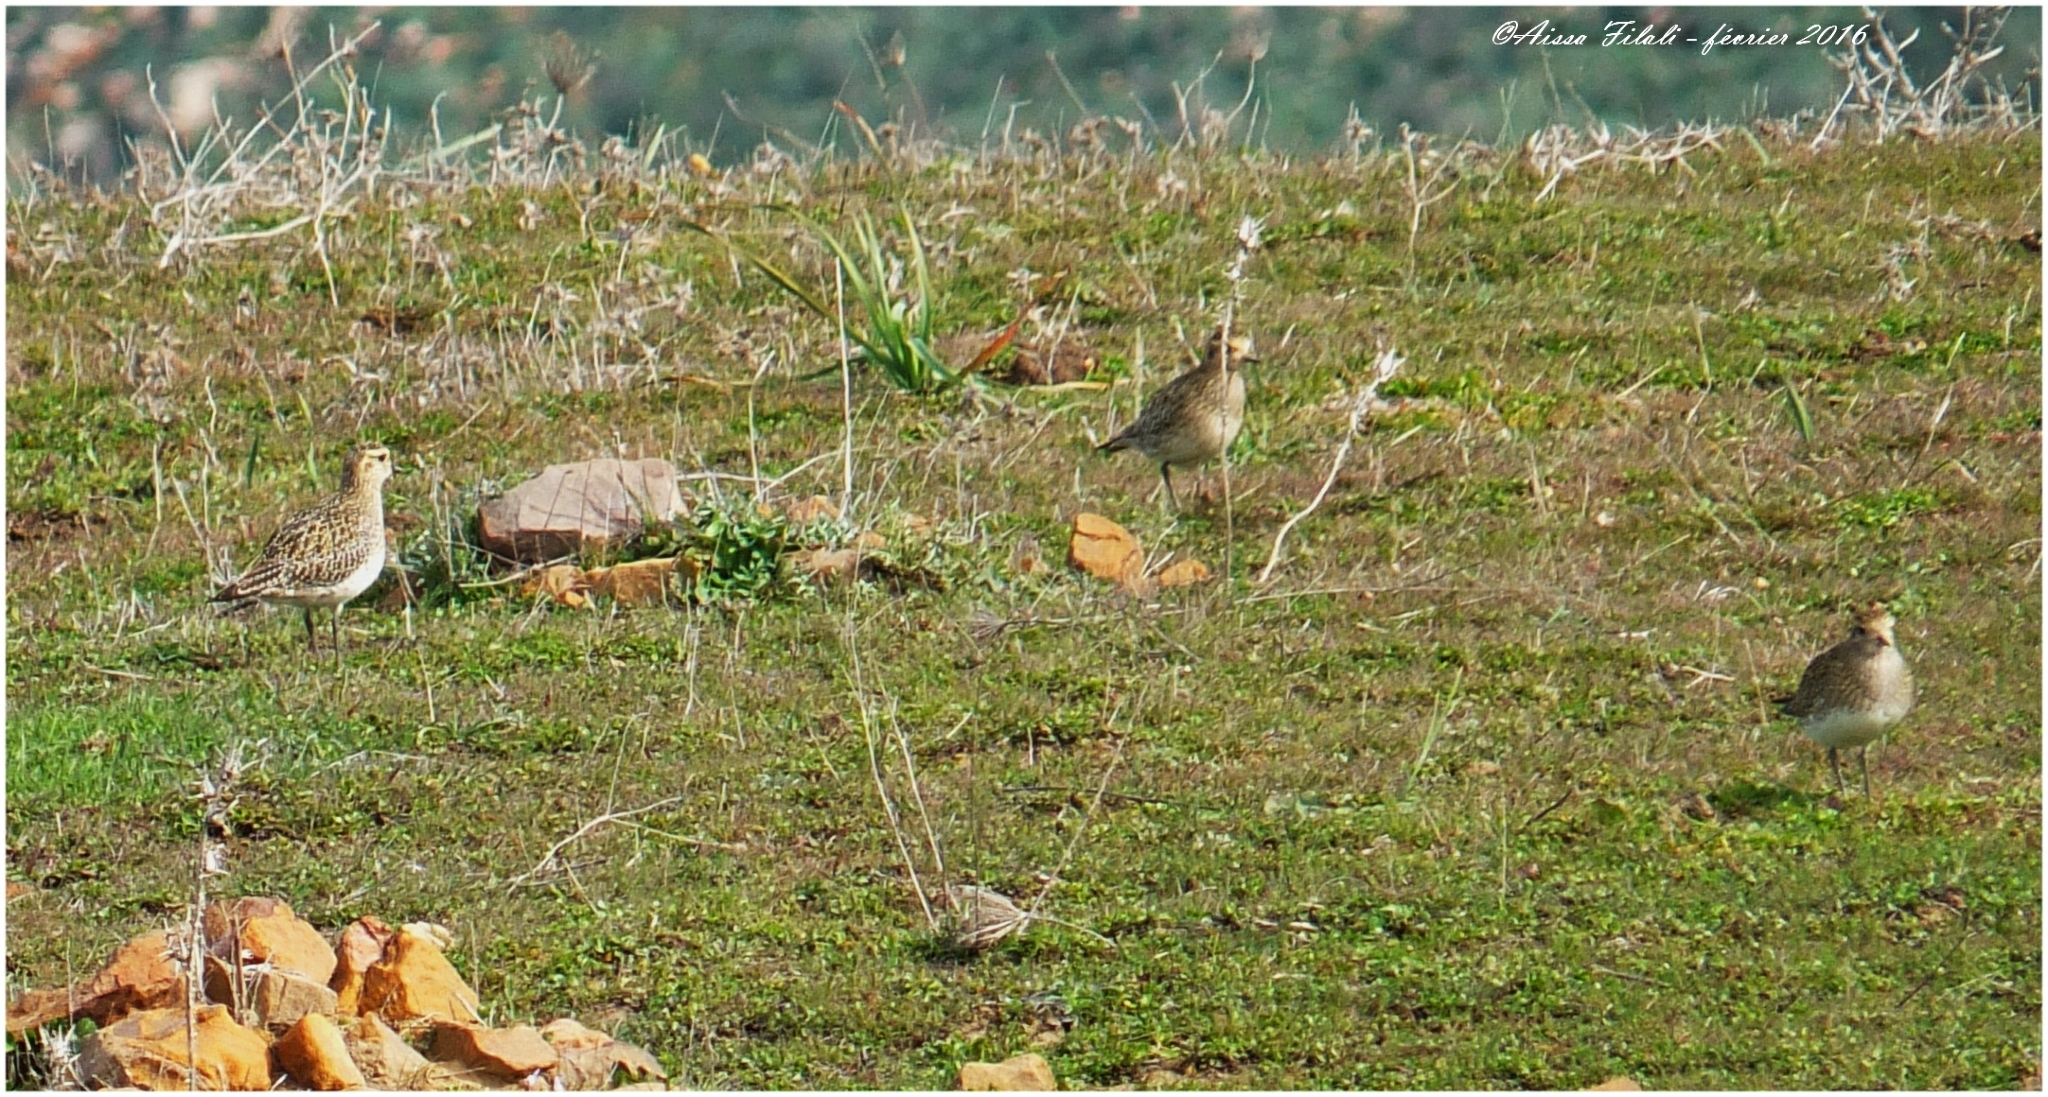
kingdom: Animalia
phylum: Chordata
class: Aves
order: Charadriiformes
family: Charadriidae
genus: Pluvialis
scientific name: Pluvialis apricaria
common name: European golden plover
